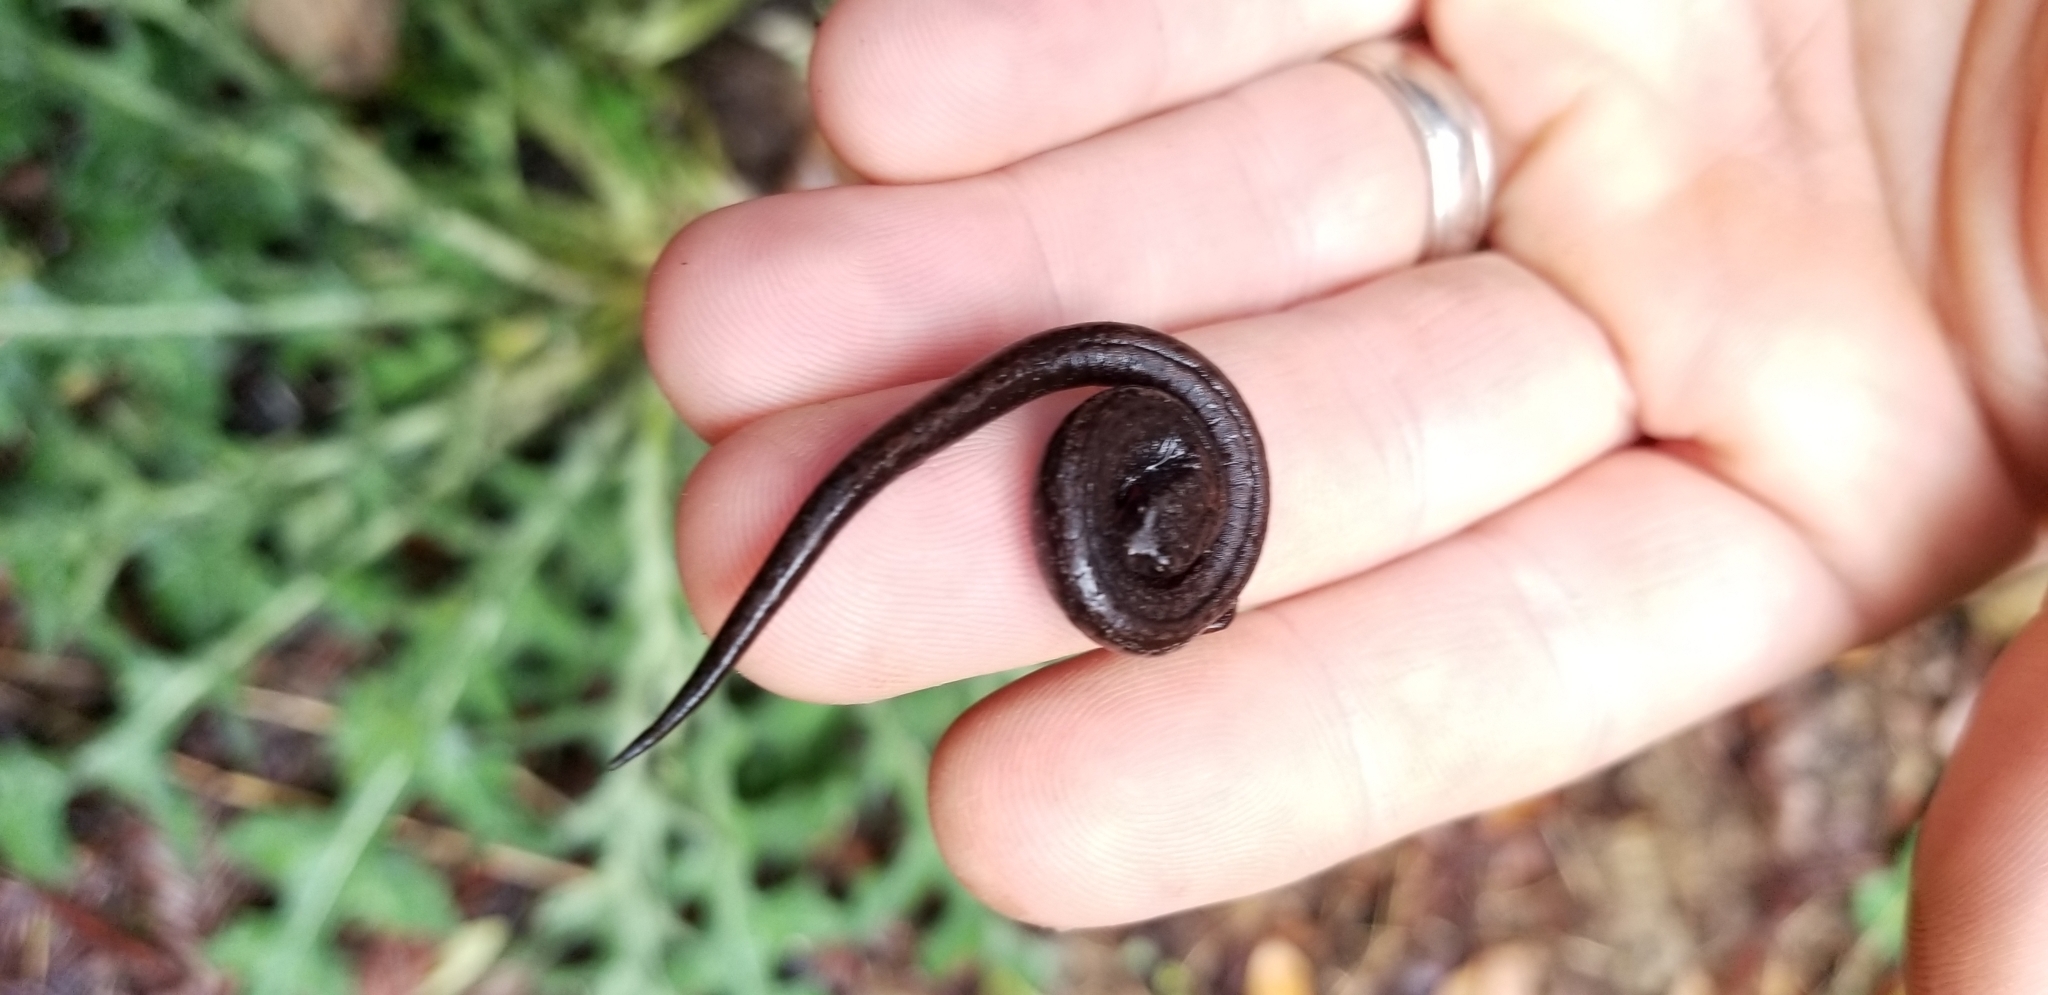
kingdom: Animalia
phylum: Chordata
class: Amphibia
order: Caudata
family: Plethodontidae
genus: Batrachoseps
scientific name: Batrachoseps attenuatus
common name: California slender salamander
